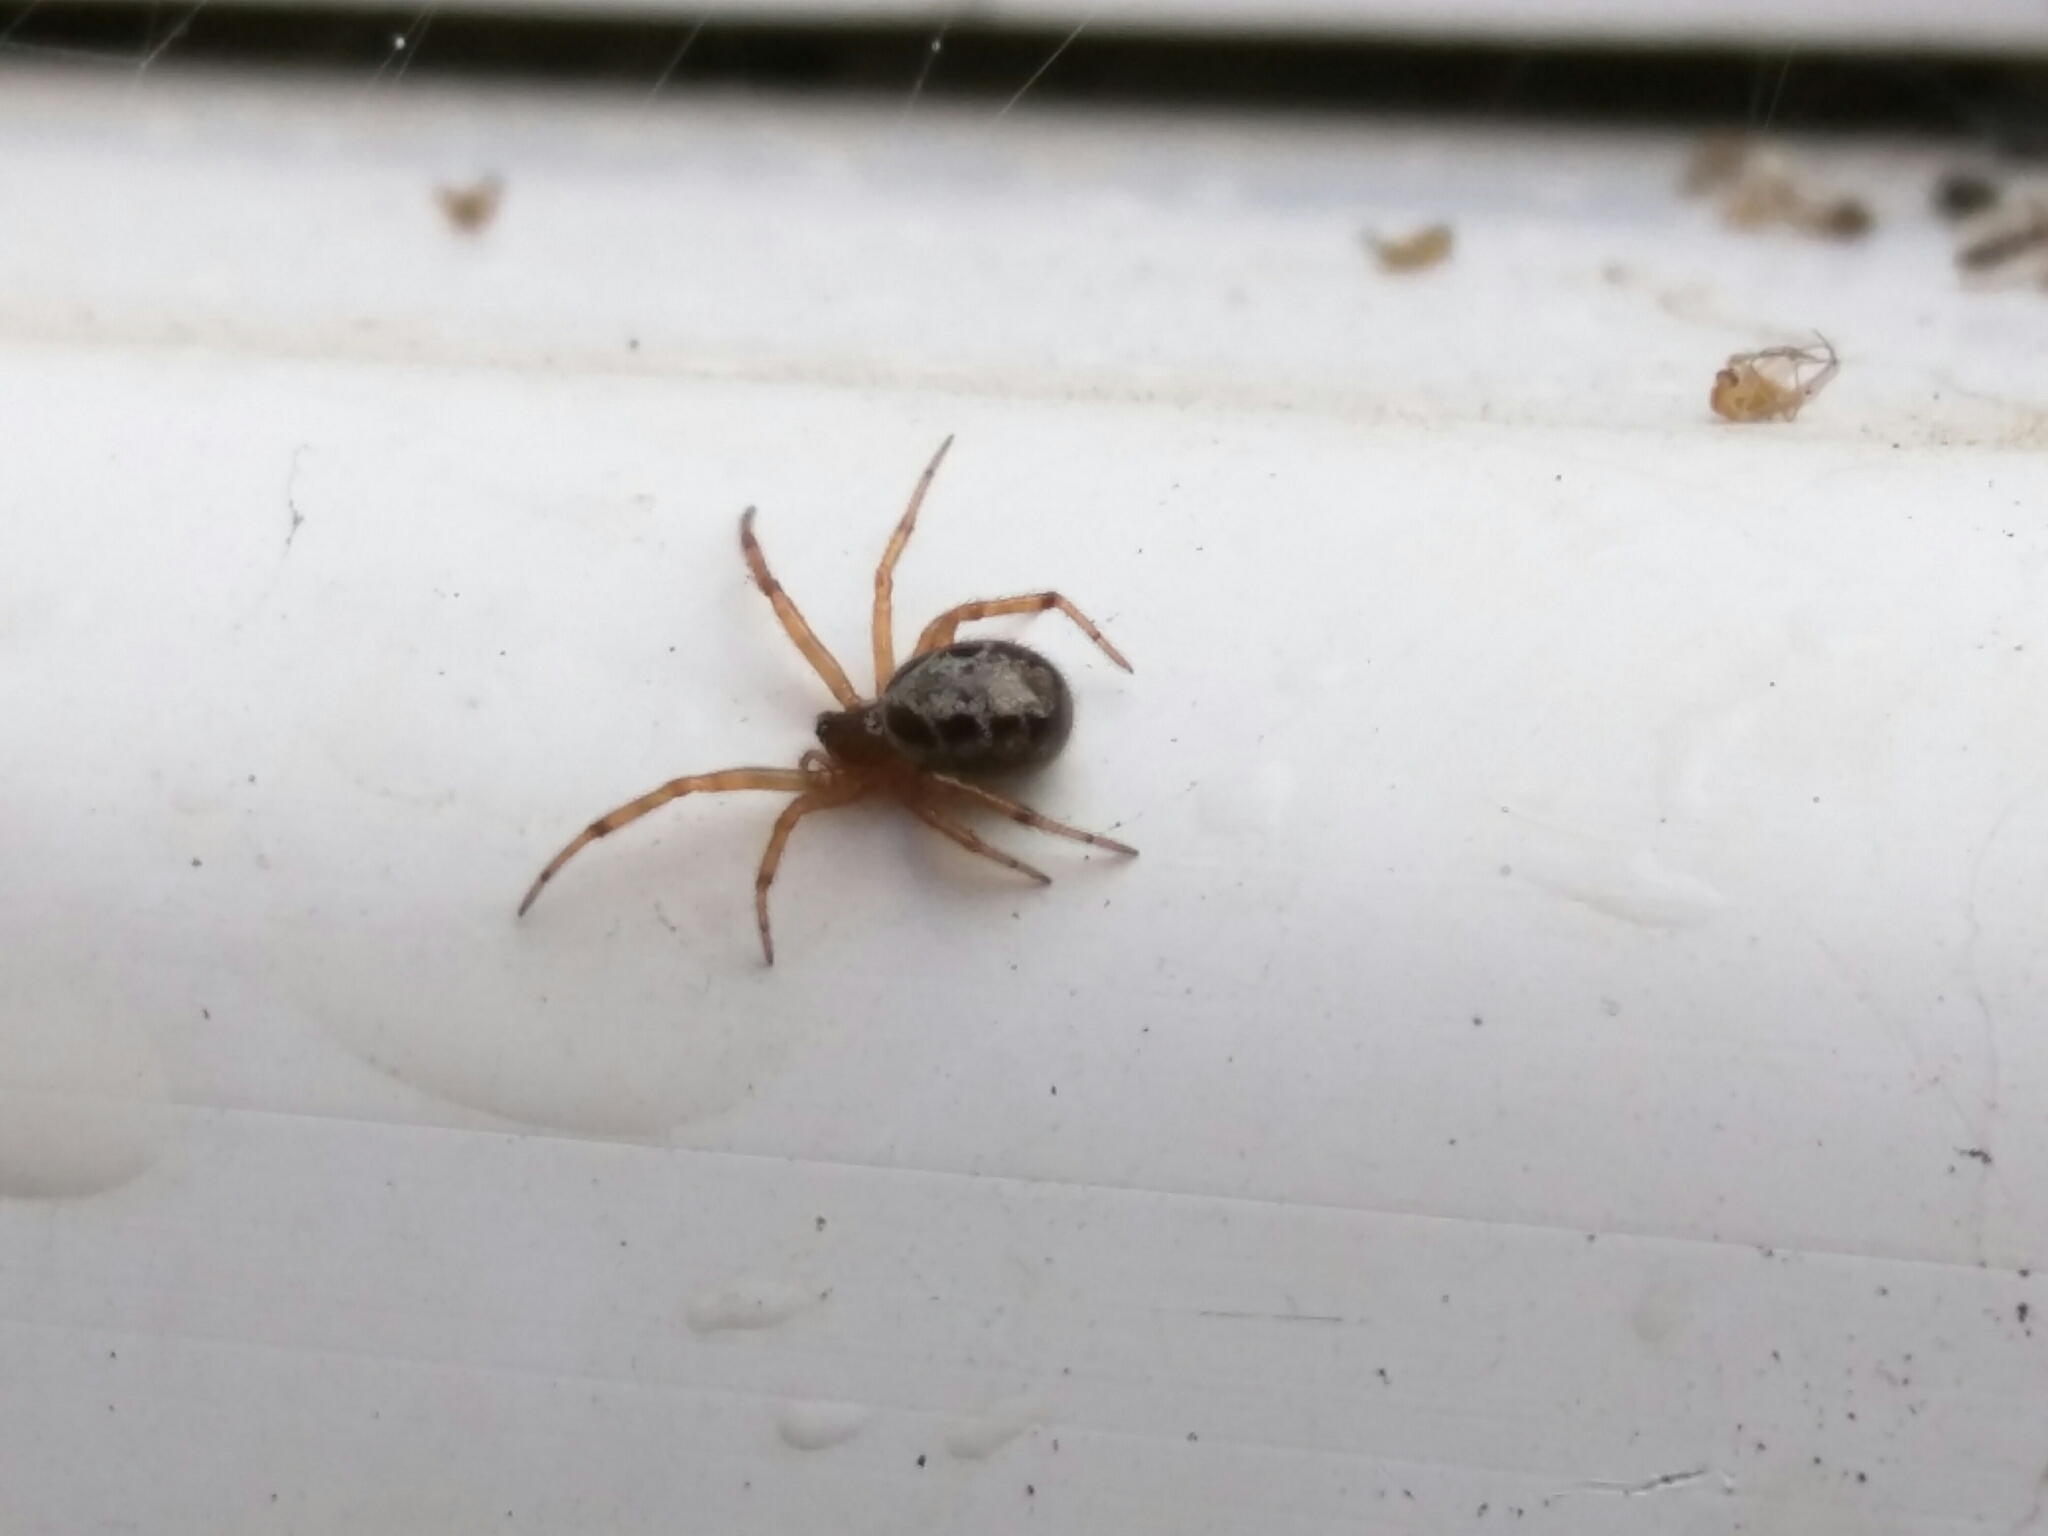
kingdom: Animalia
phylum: Arthropoda
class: Arachnida
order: Araneae
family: Theridiidae
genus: Steatoda
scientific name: Steatoda nobilis
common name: Cobweb weaver
